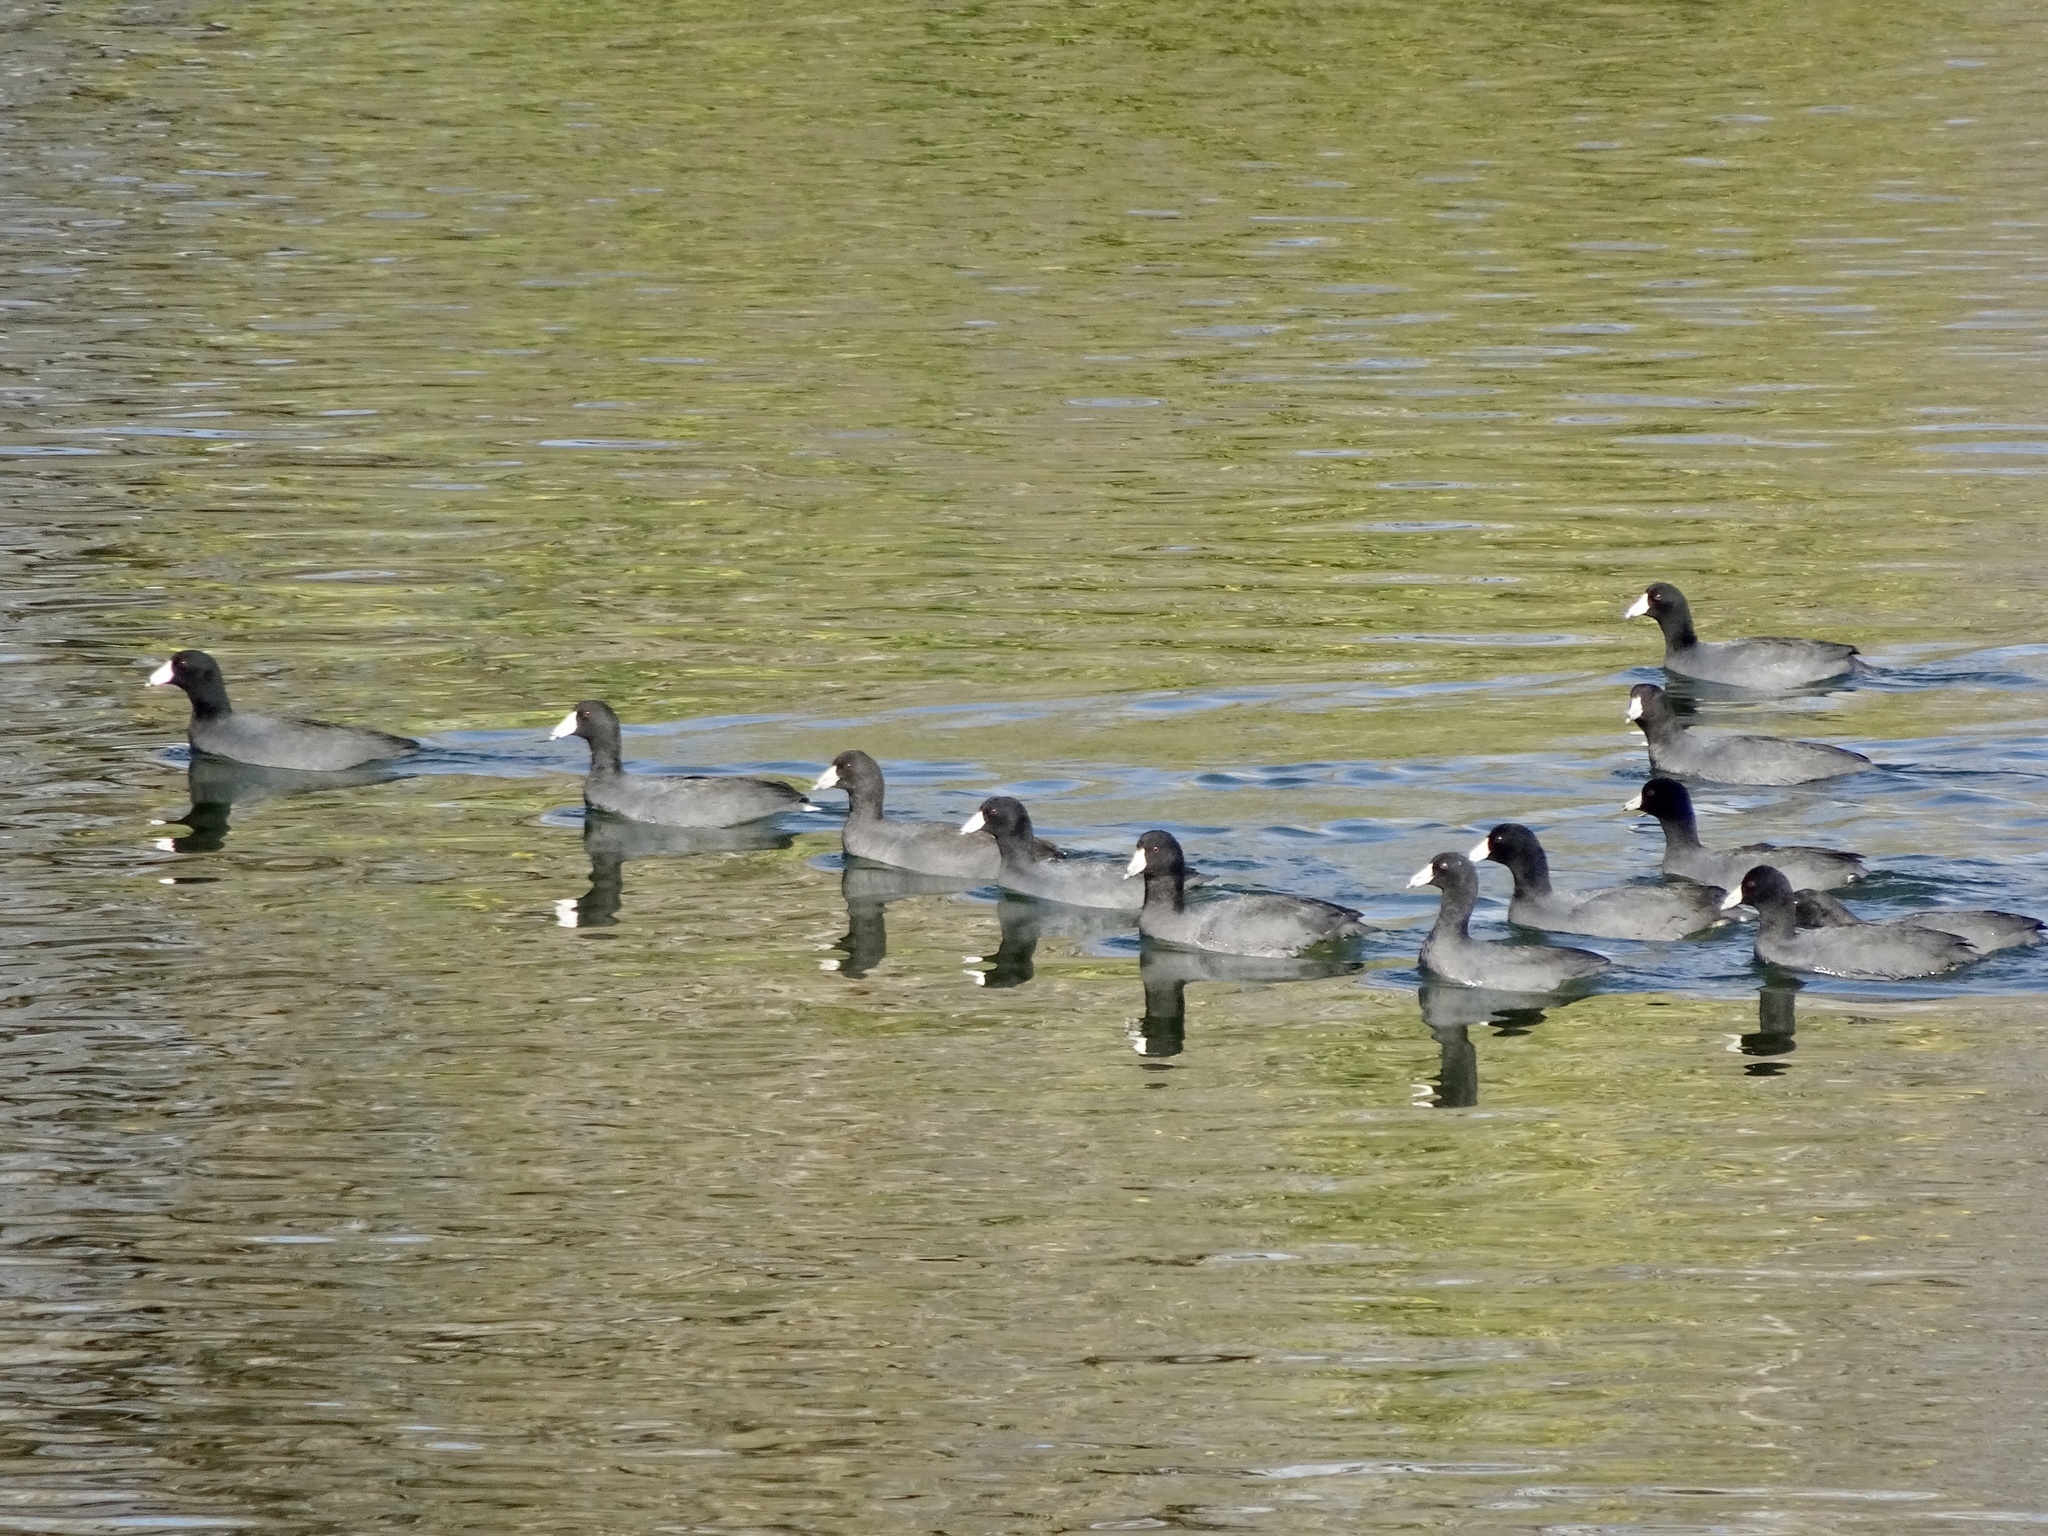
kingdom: Animalia
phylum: Chordata
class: Aves
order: Gruiformes
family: Rallidae
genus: Fulica
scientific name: Fulica americana
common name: American coot
